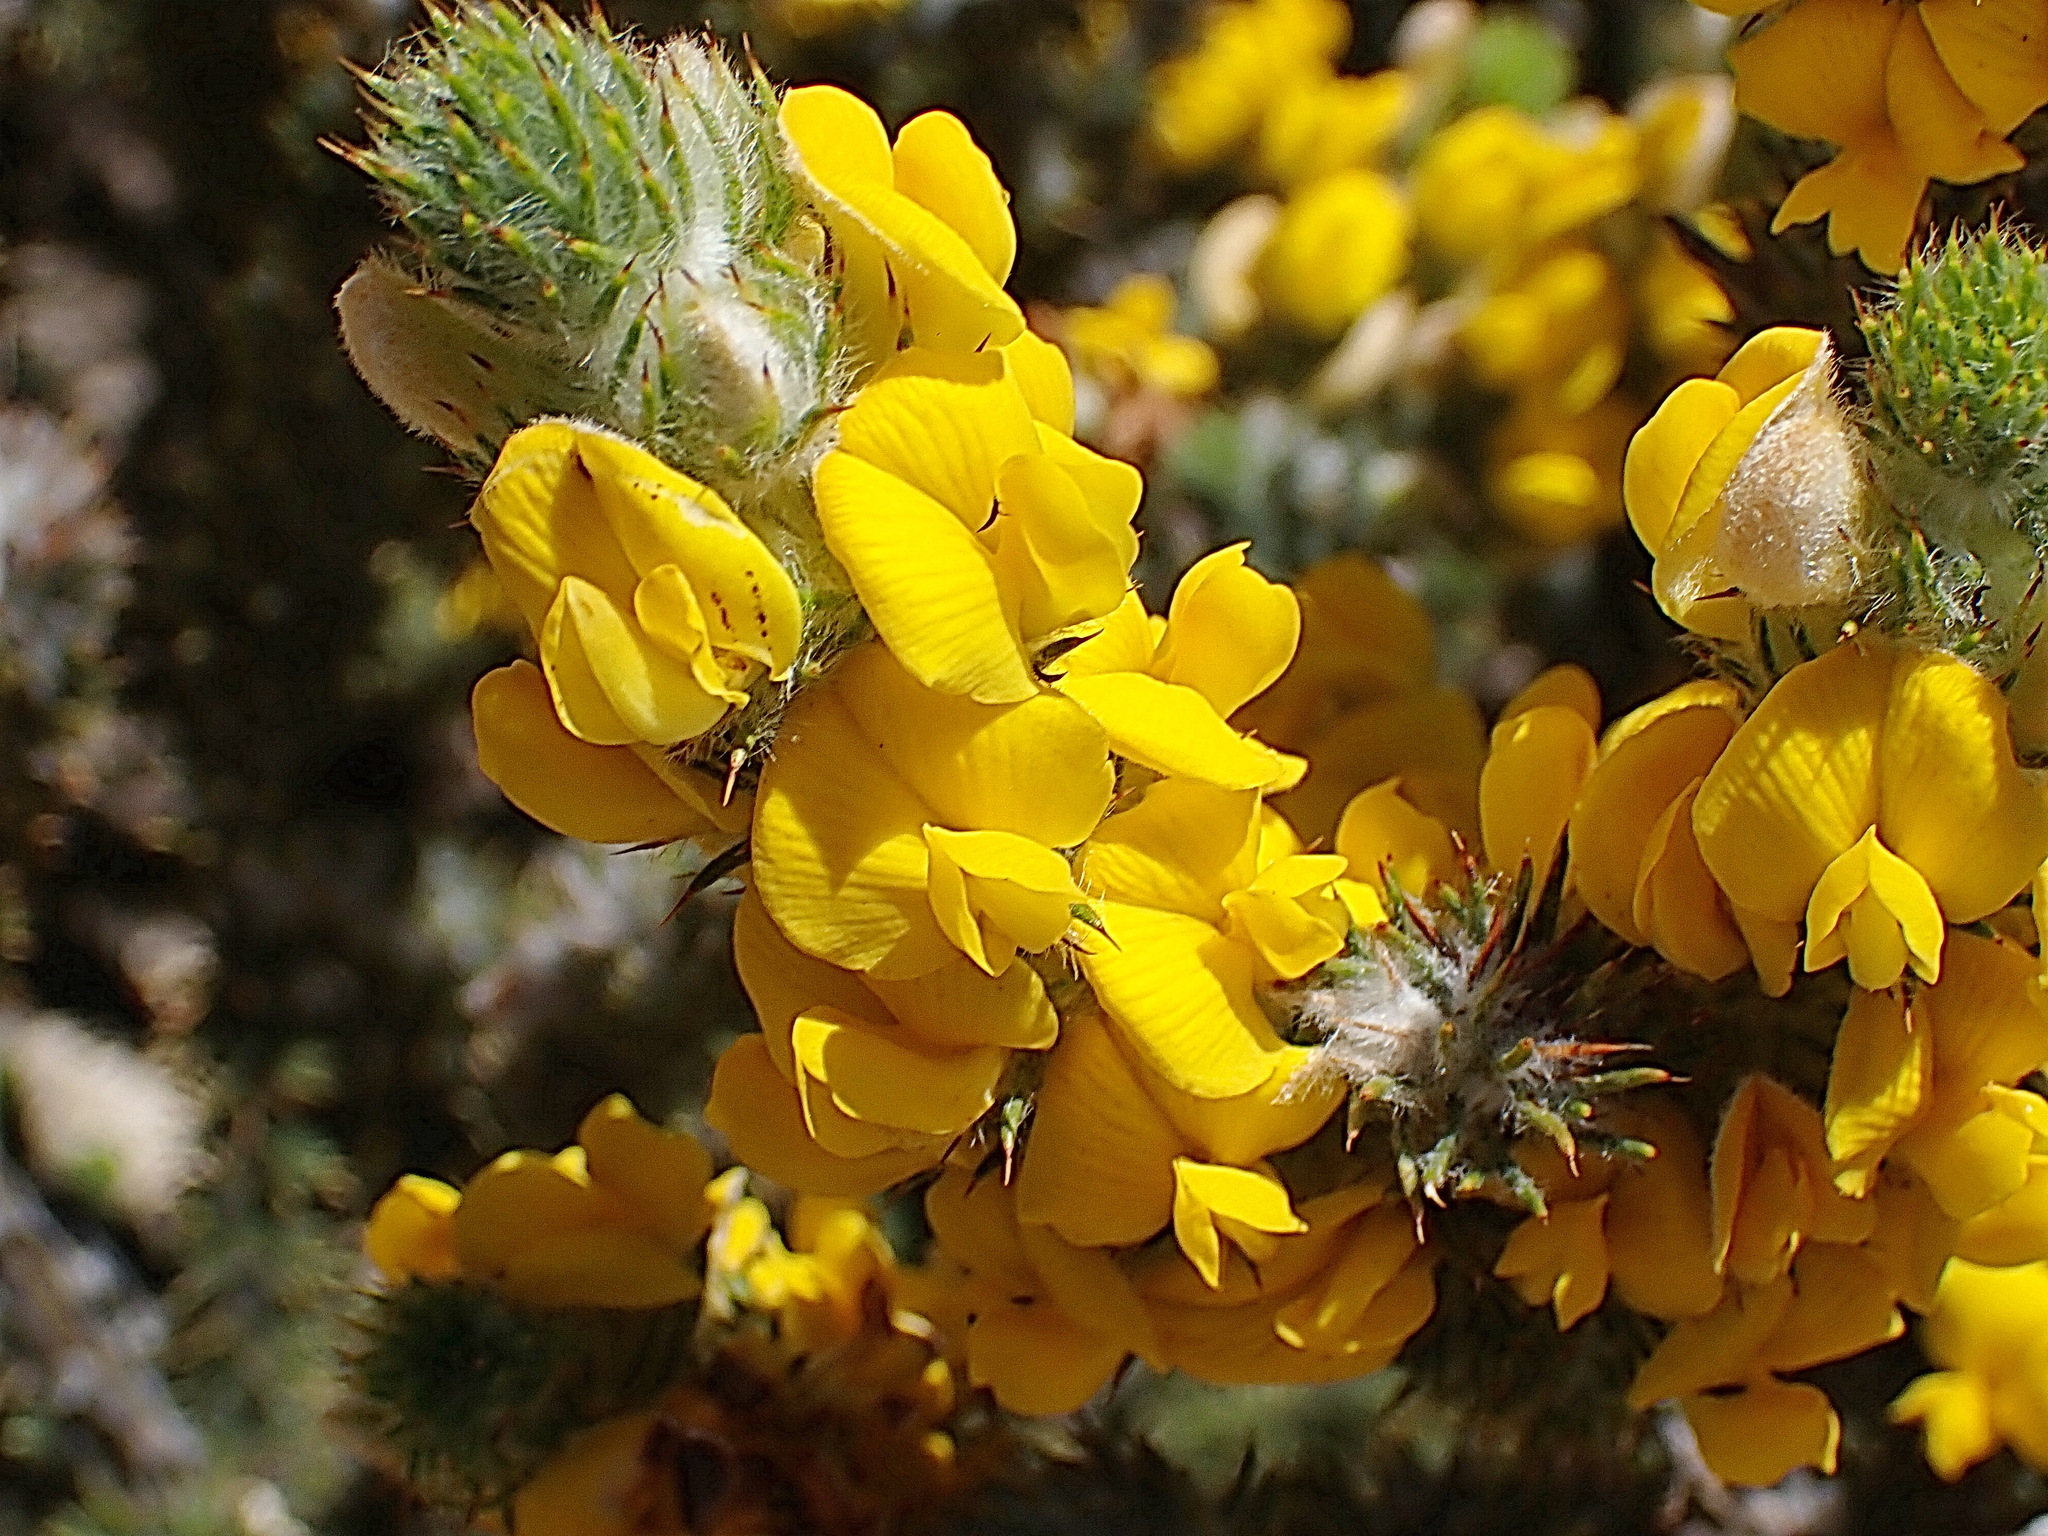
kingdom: Plantae
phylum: Tracheophyta
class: Magnoliopsida
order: Fabales
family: Fabaceae
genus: Aspalathus
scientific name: Aspalathus shawii
